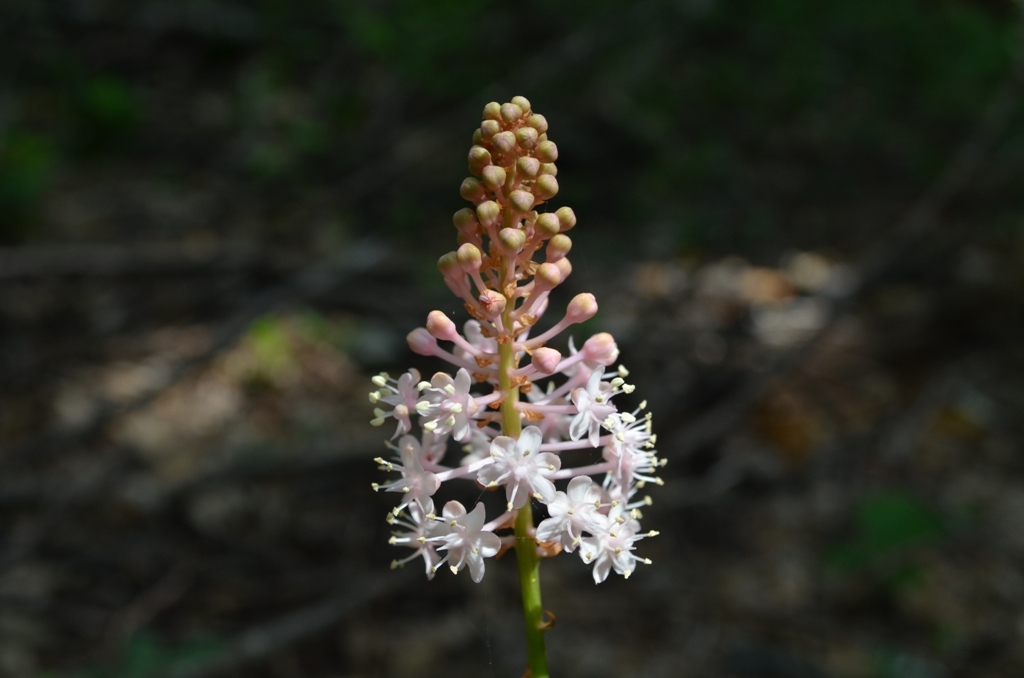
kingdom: Plantae
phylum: Tracheophyta
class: Liliopsida
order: Liliales
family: Melanthiaceae
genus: Amianthium
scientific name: Amianthium muscitoxicum
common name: Fly-poison
